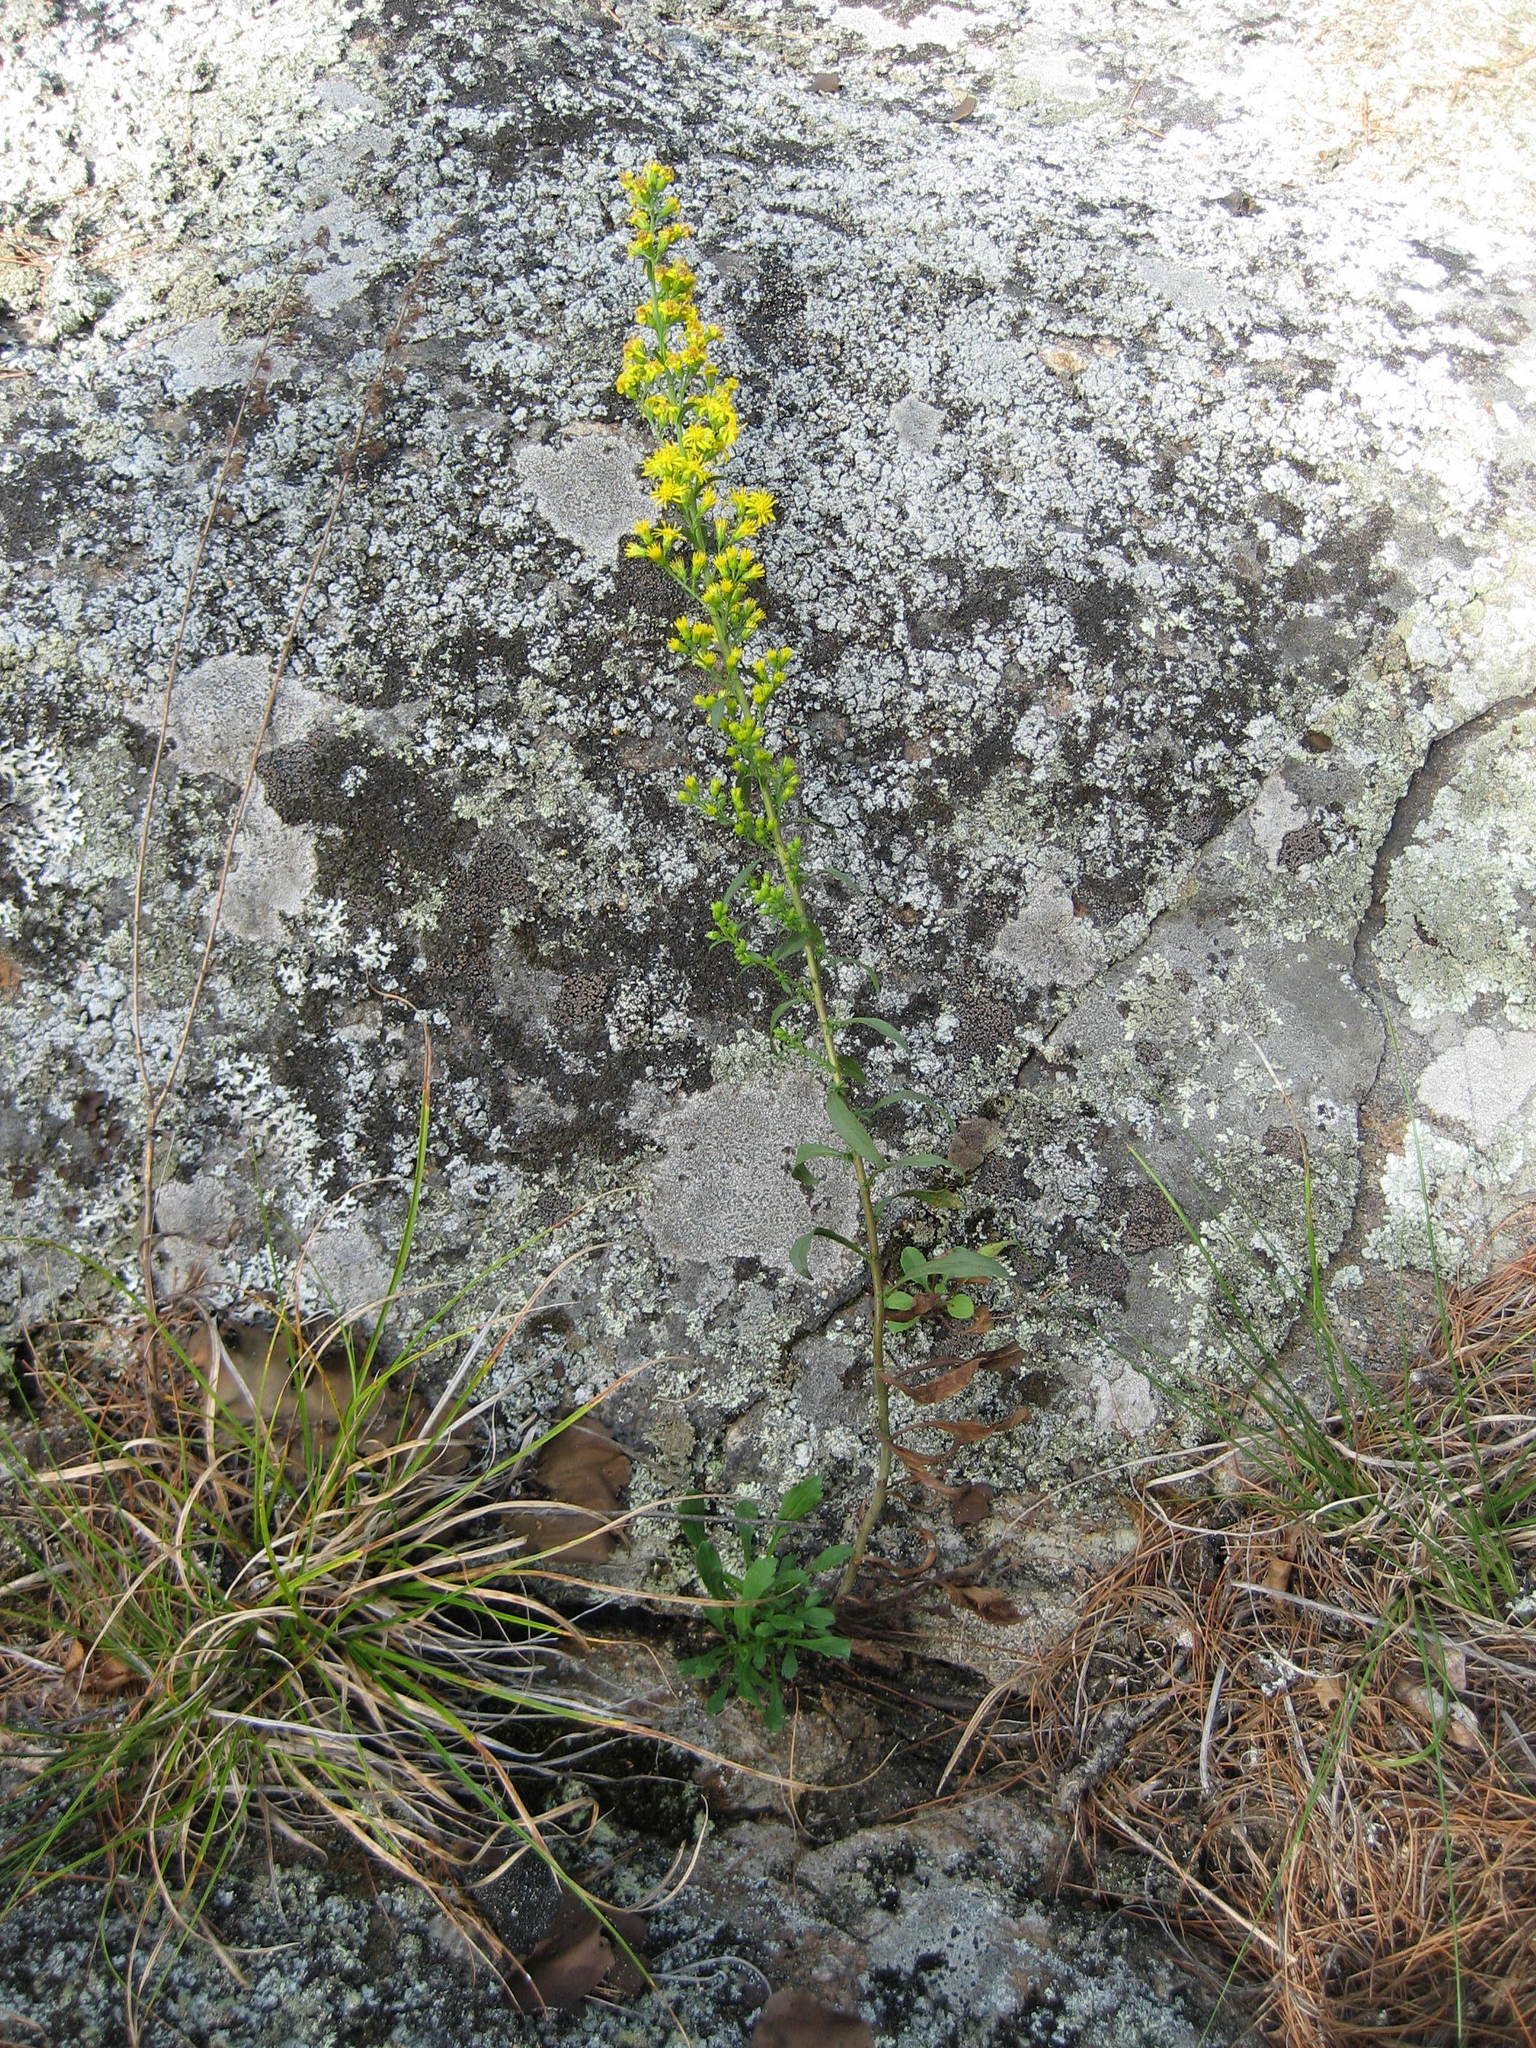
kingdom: Plantae
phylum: Tracheophyta
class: Magnoliopsida
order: Asterales
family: Asteraceae
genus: Solidago
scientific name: Solidago puberula
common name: Downy goldenrod
